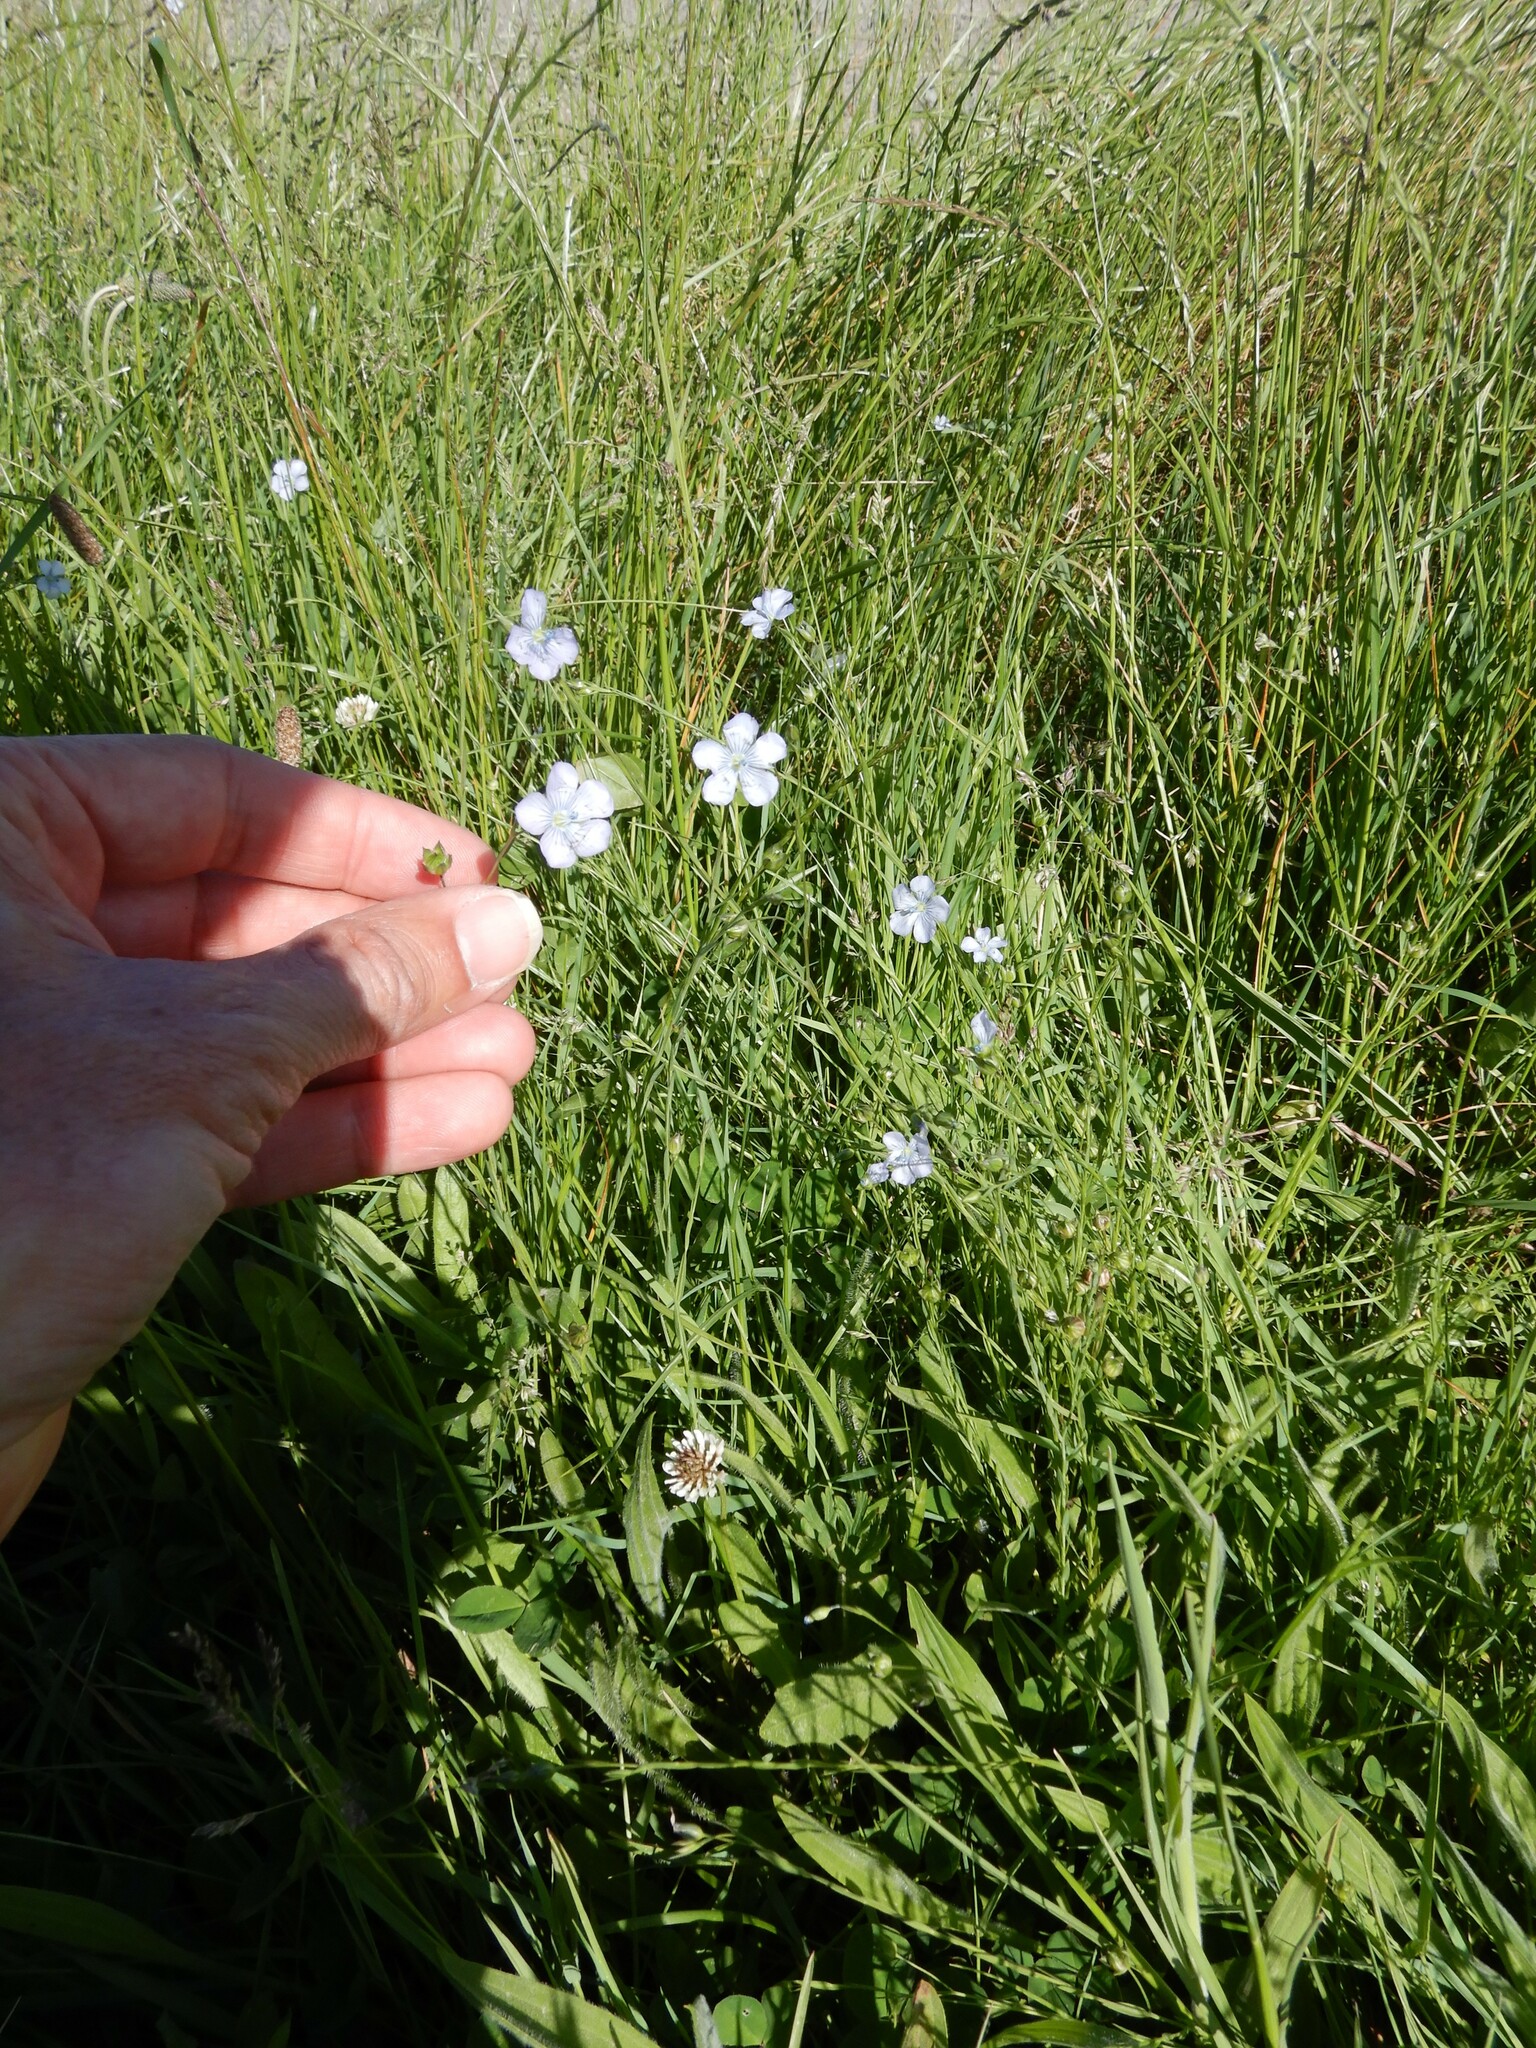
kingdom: Plantae
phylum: Tracheophyta
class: Magnoliopsida
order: Malpighiales
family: Linaceae
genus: Linum
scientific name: Linum bienne
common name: Pale flax
